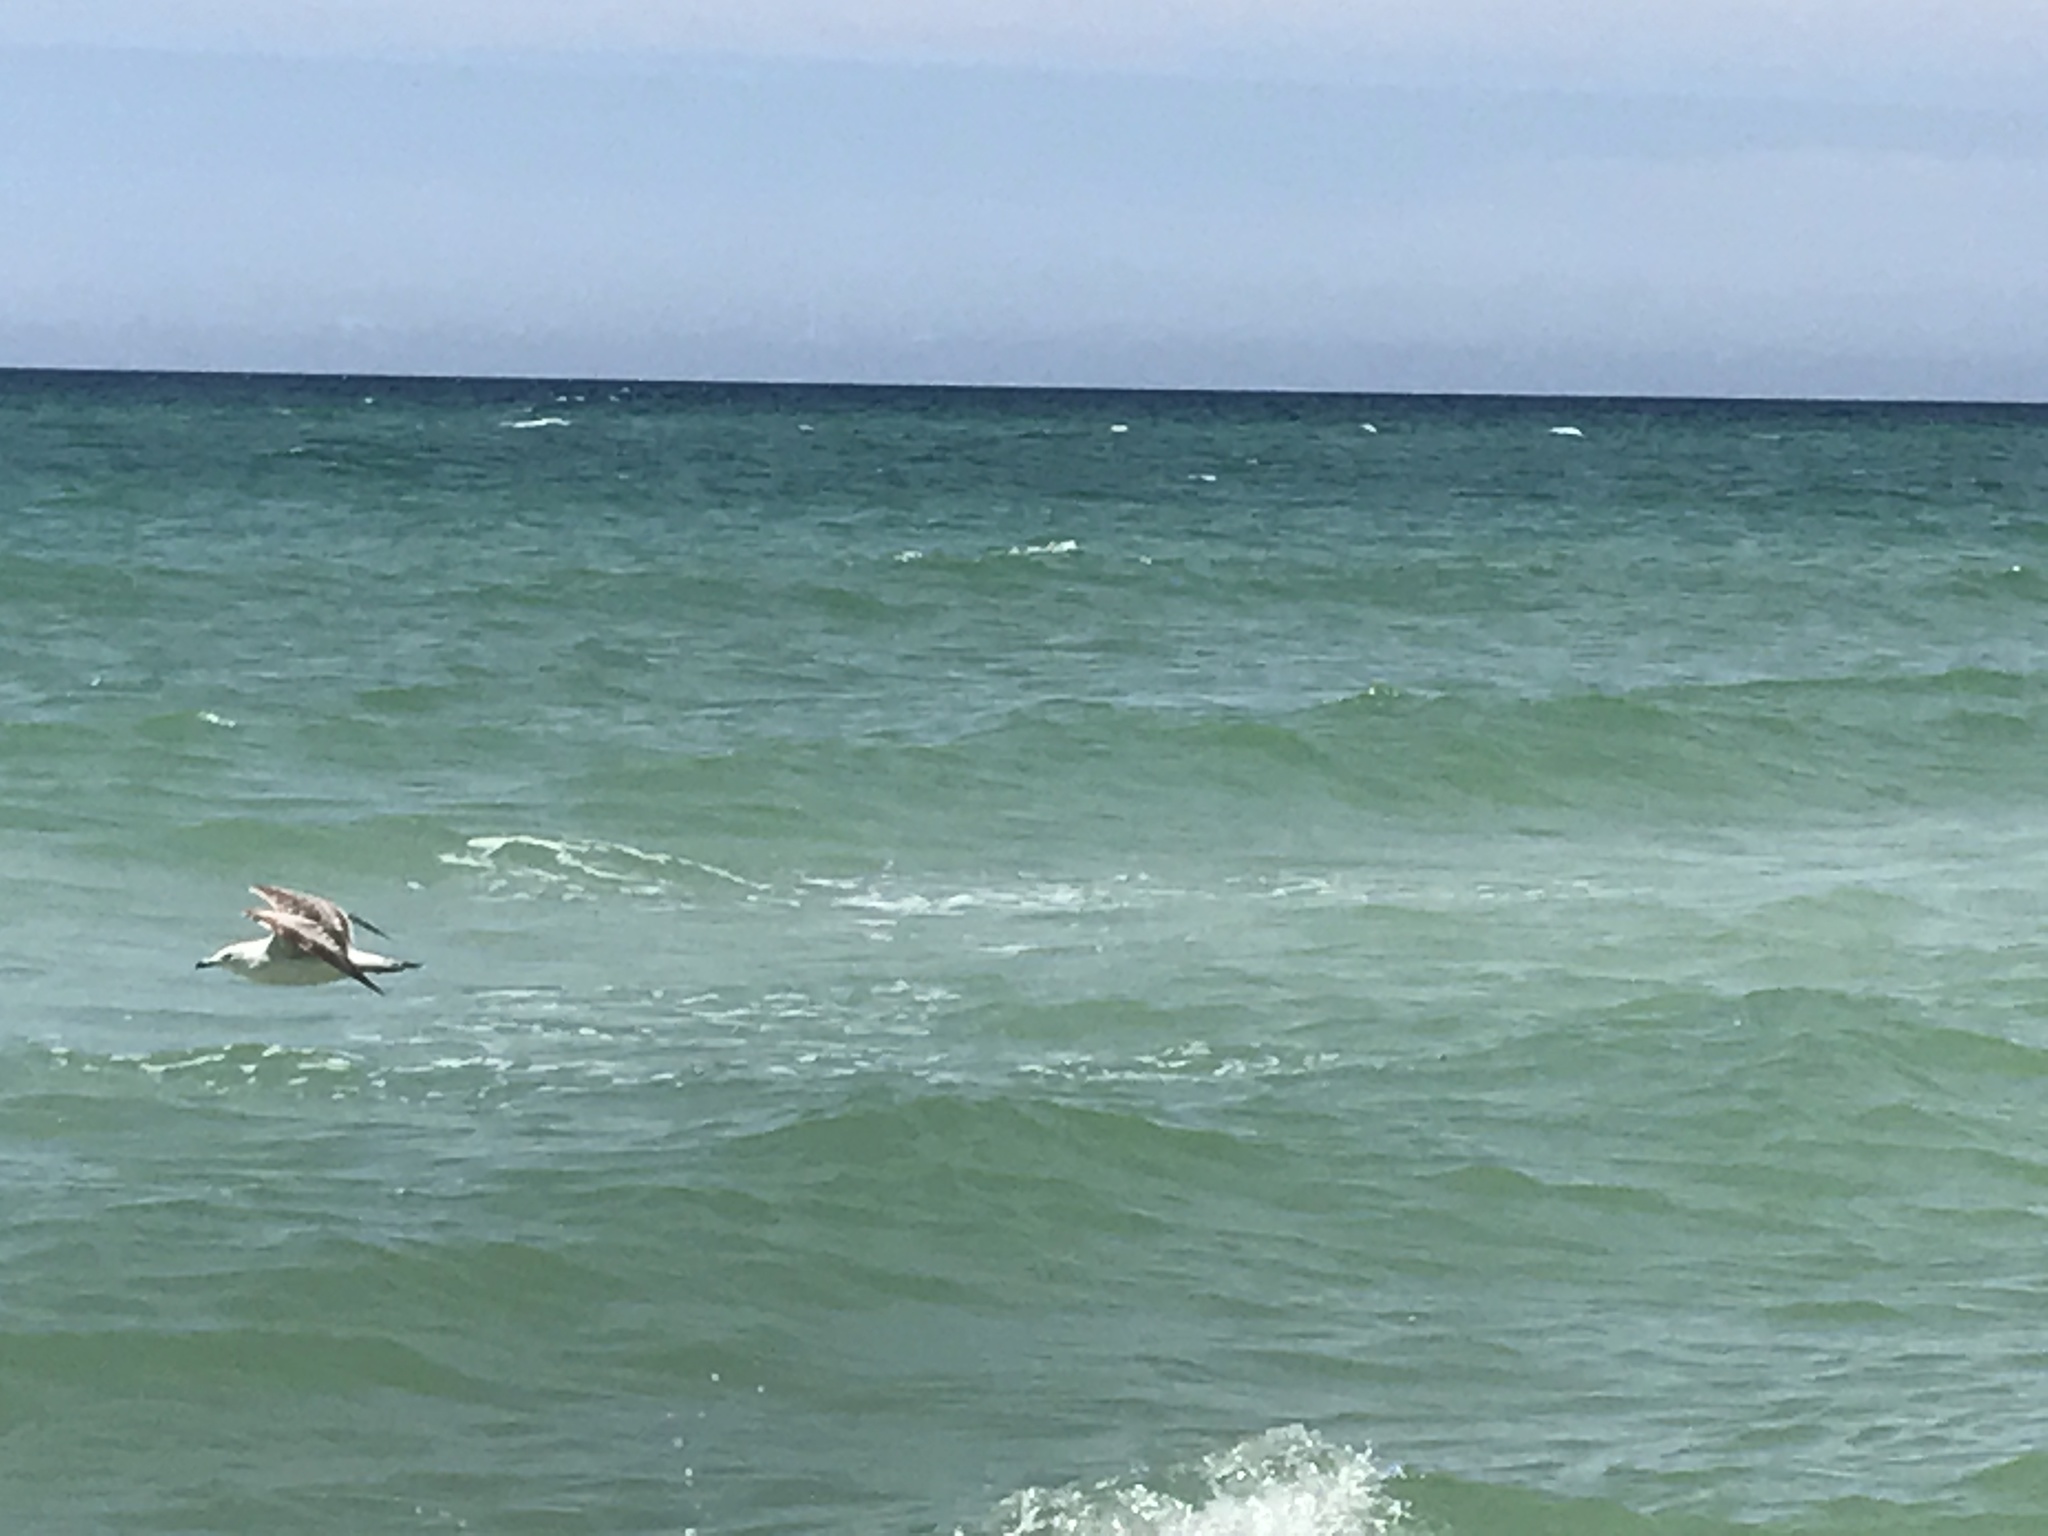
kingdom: Animalia
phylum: Chordata
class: Aves
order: Charadriiformes
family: Laridae
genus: Larus
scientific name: Larus delawarensis
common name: Ring-billed gull
